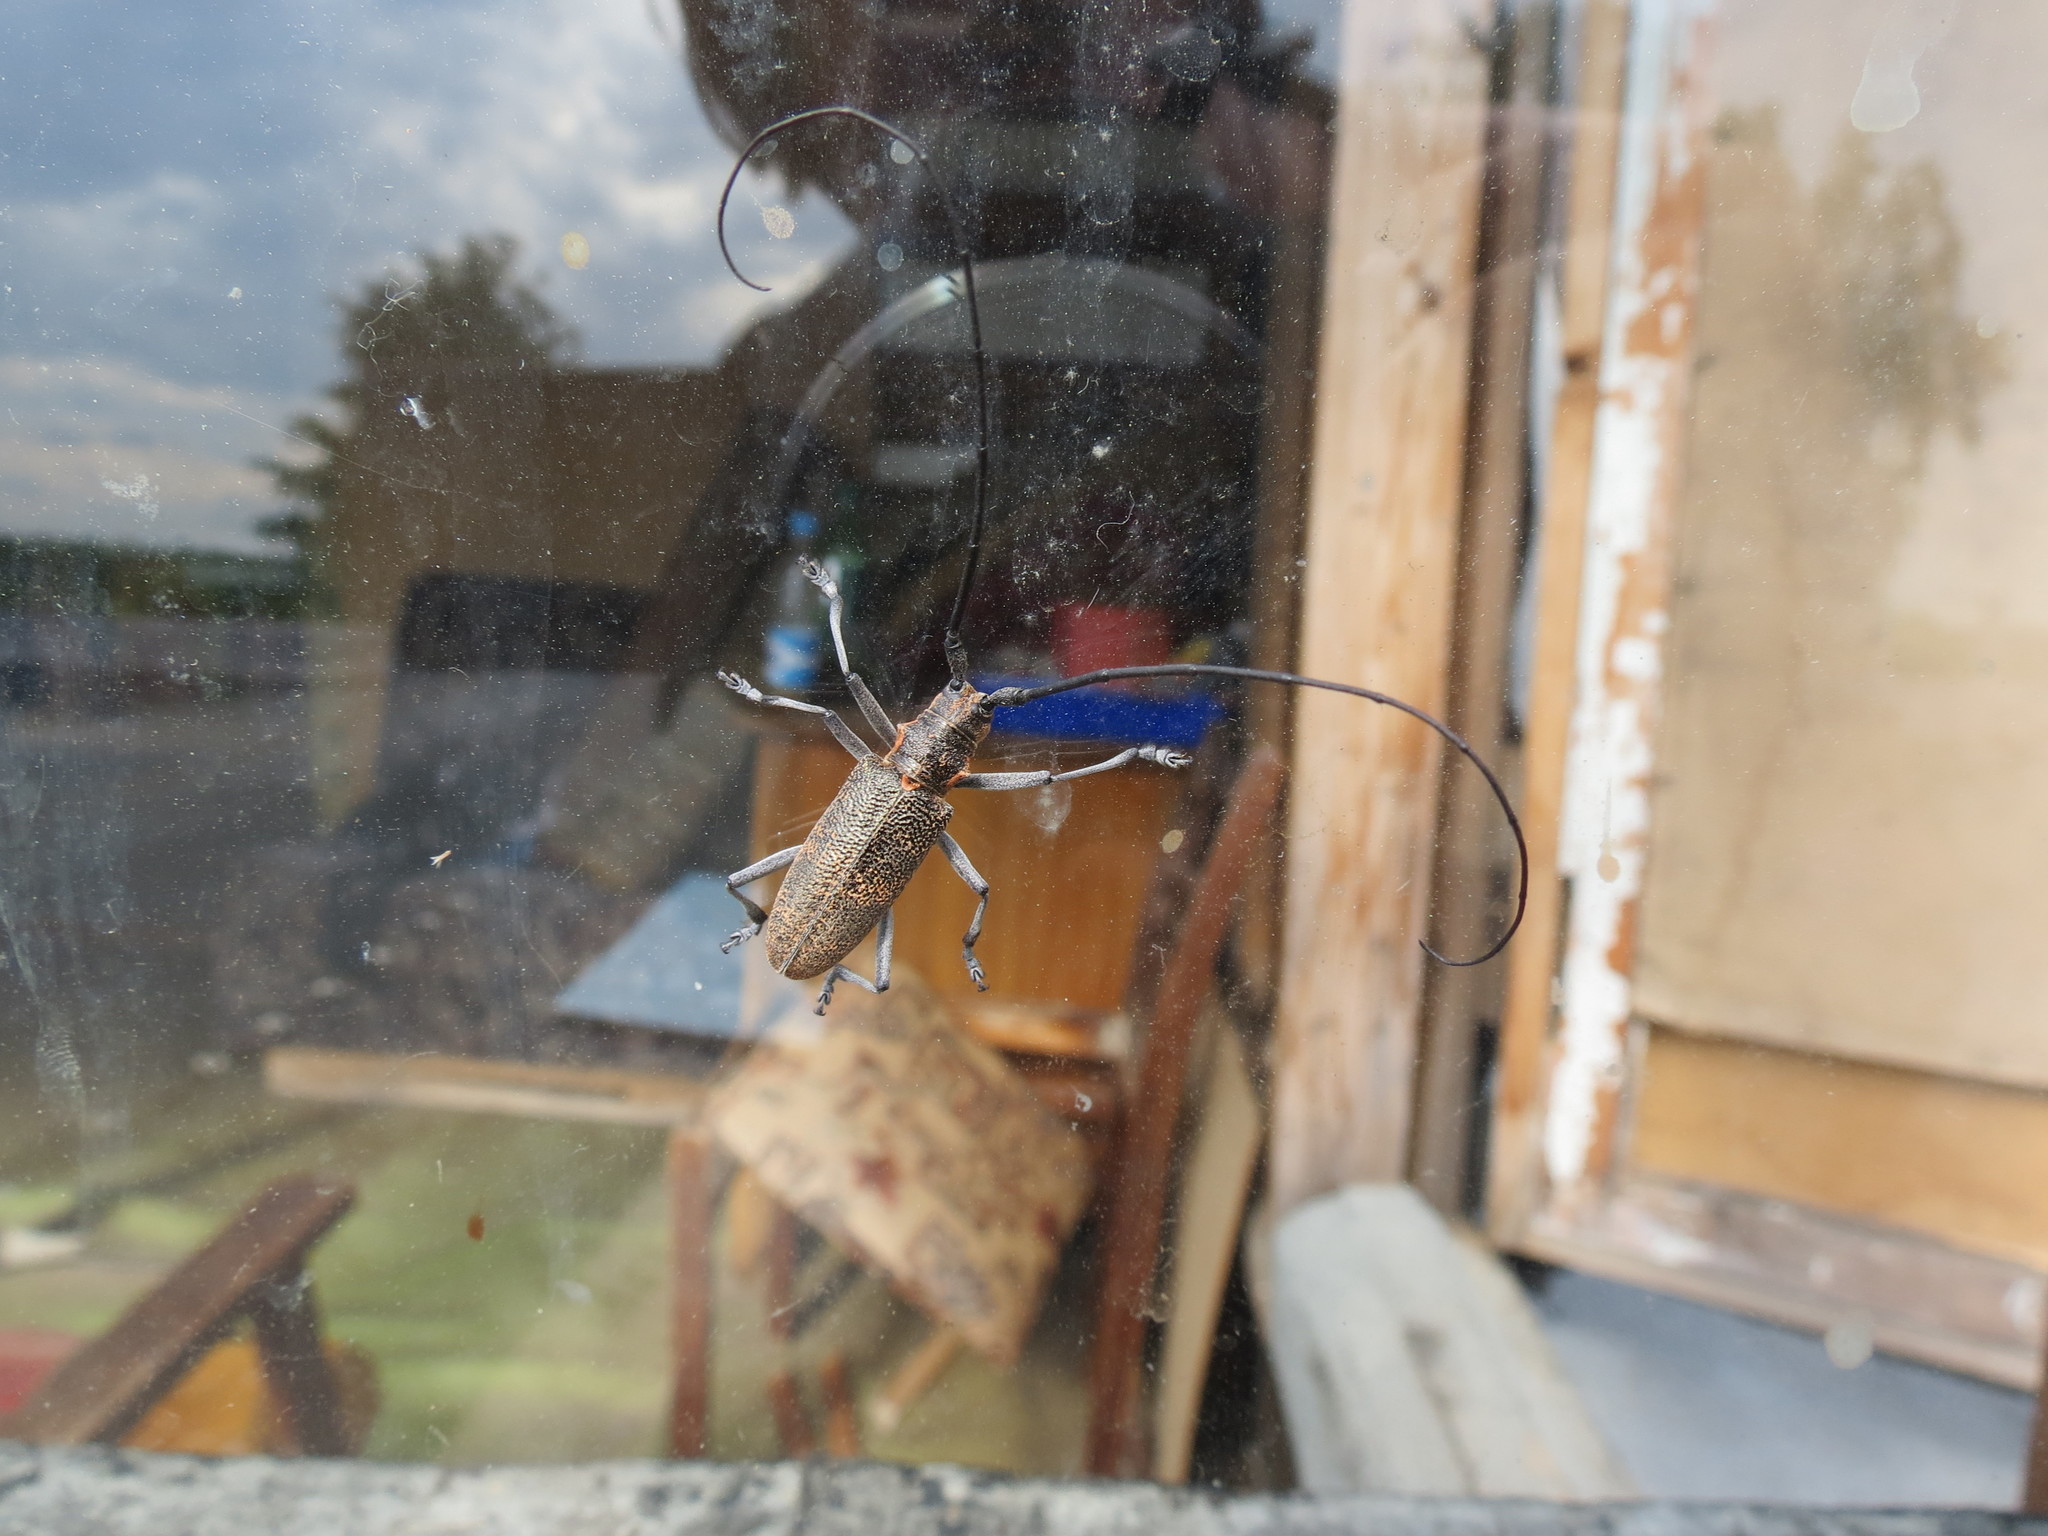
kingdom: Animalia
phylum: Arthropoda
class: Insecta
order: Coleoptera
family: Cerambycidae
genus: Monochamus
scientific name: Monochamus galloprovincialis
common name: Pine sawyer
